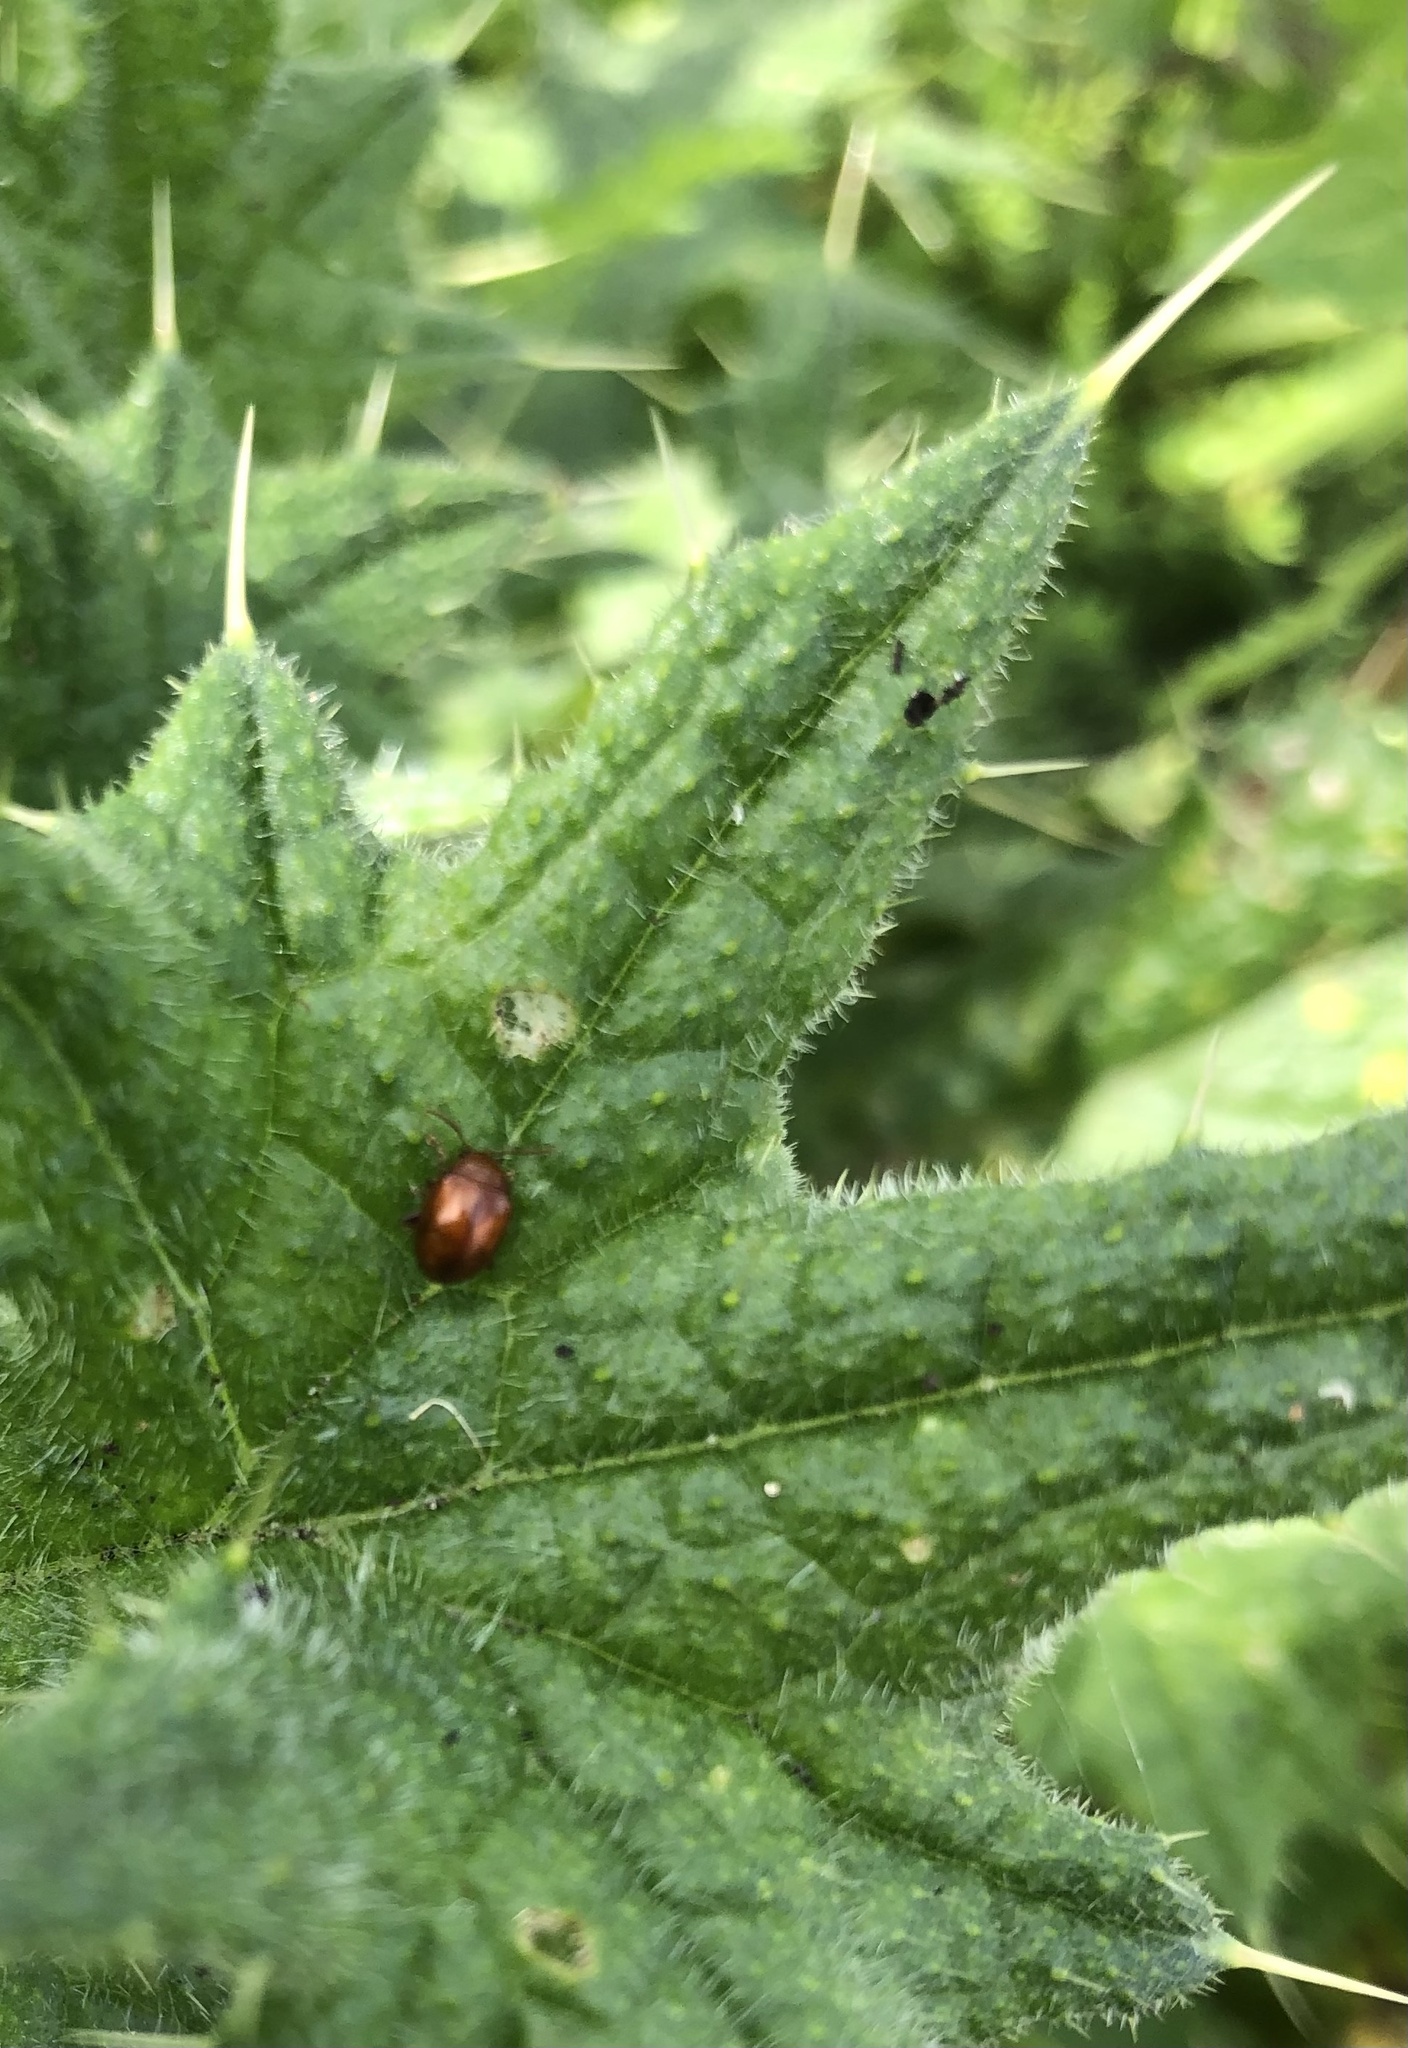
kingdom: Animalia
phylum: Arthropoda
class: Insecta
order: Coleoptera
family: Chrysomelidae
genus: Pistosia
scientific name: Pistosia testacea
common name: Leaf beetle
